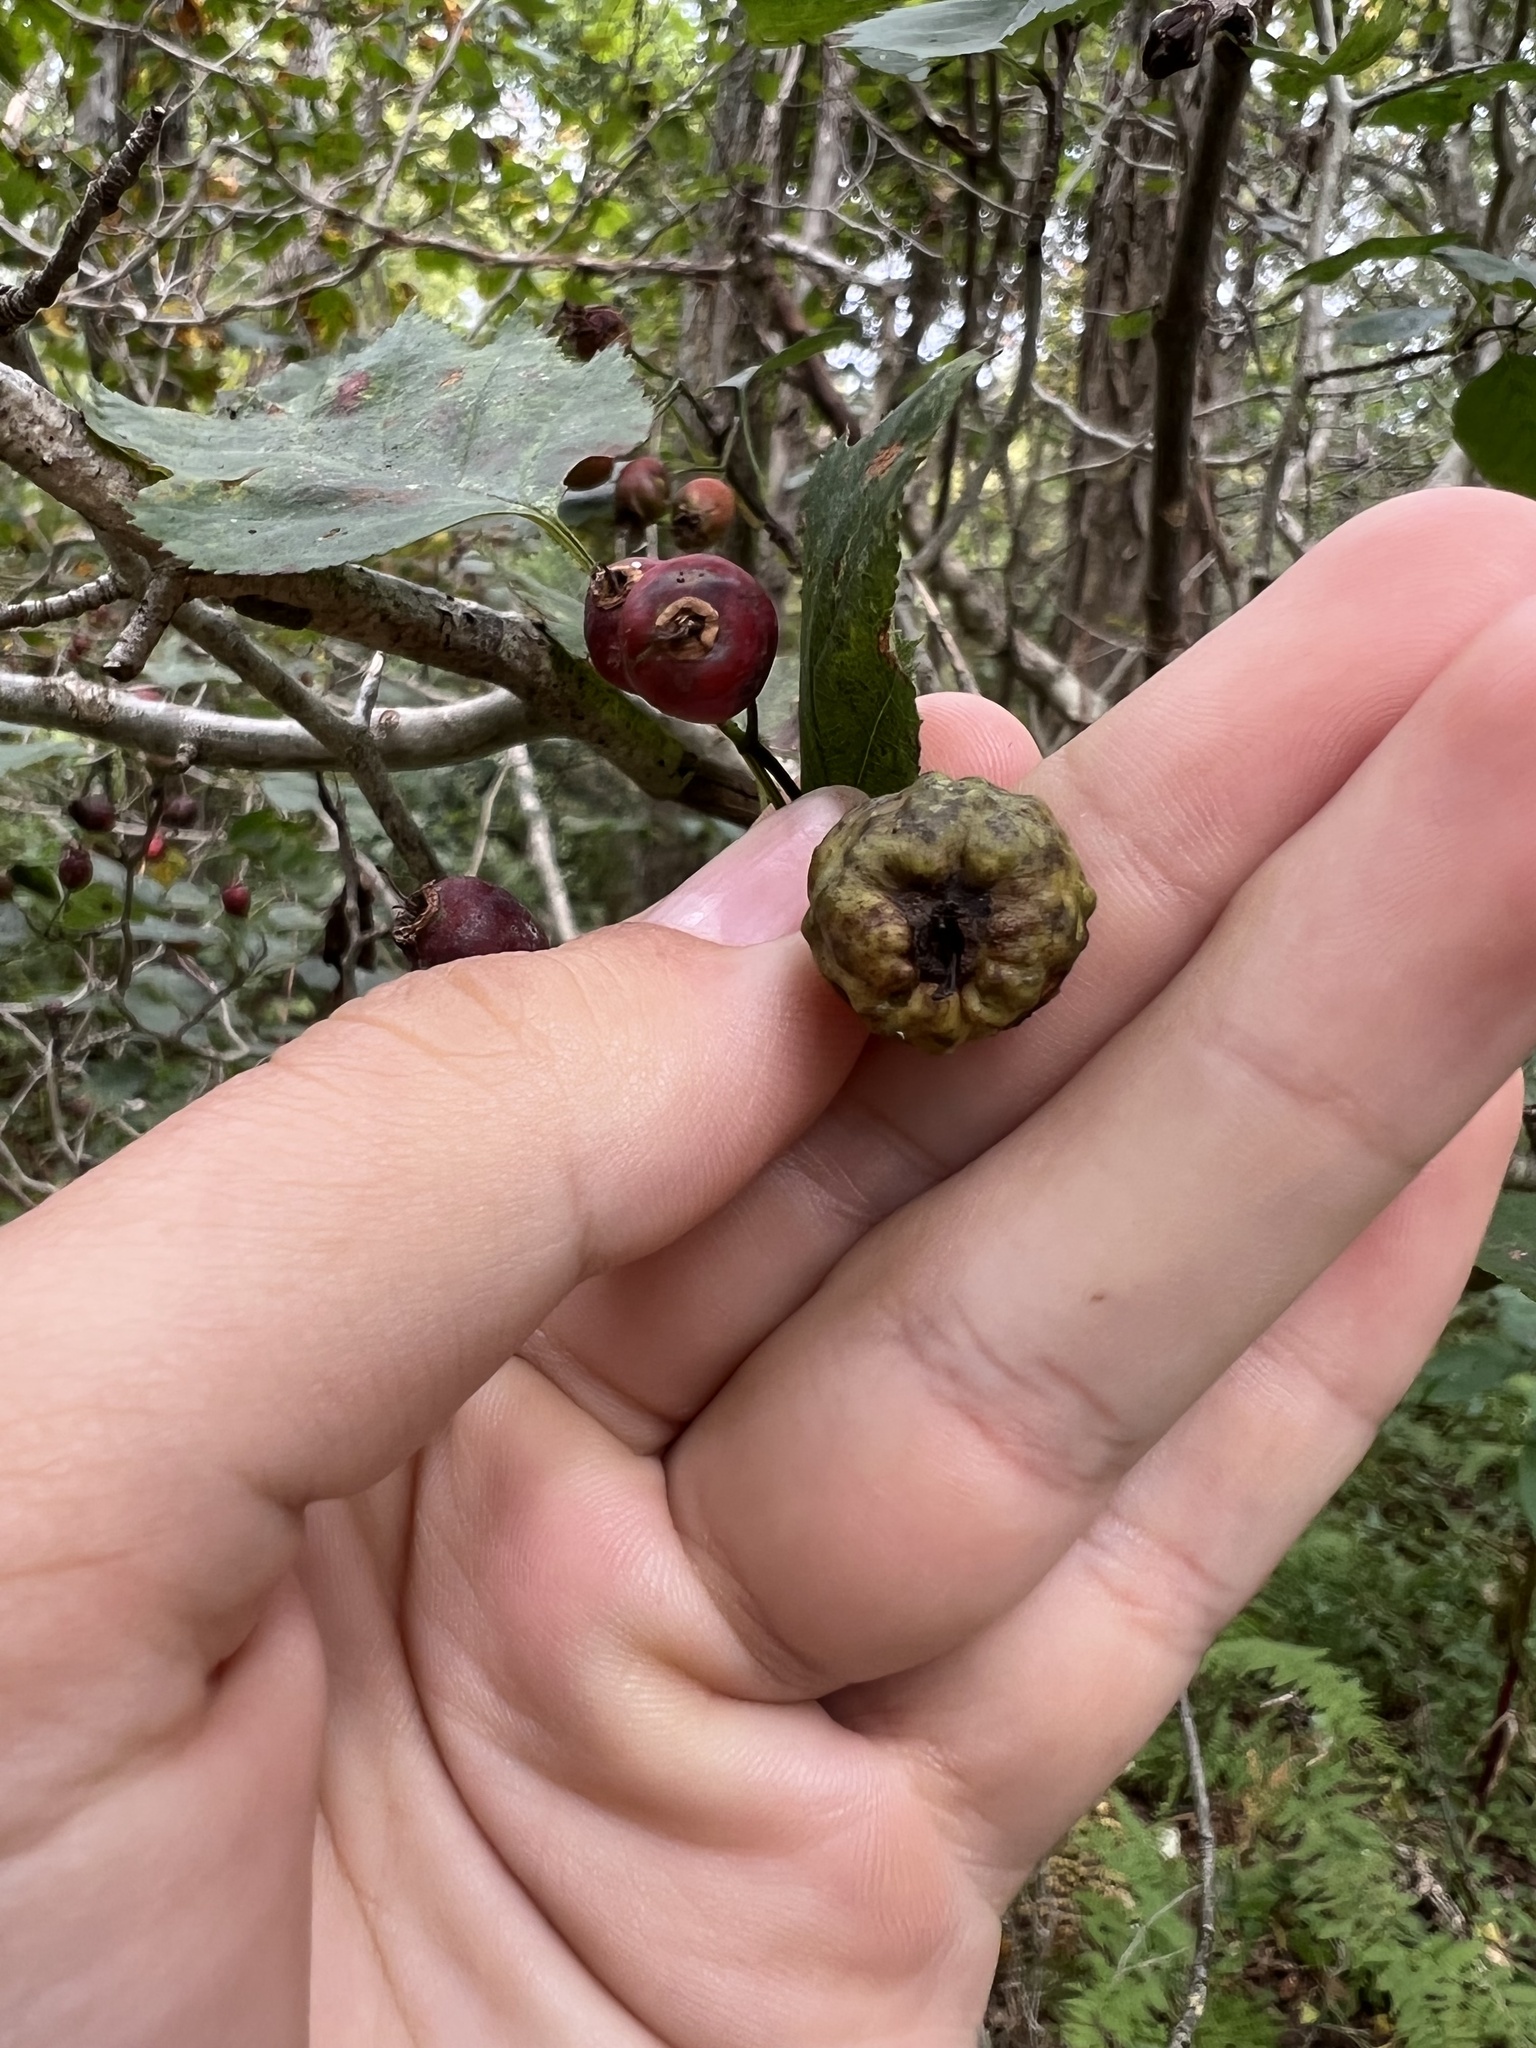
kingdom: Fungi
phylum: Basidiomycota
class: Pucciniomycetes
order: Pucciniales
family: Gymnosporangiaceae
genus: Gymnosporangium
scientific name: Gymnosporangium clavipes
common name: Quince rust
